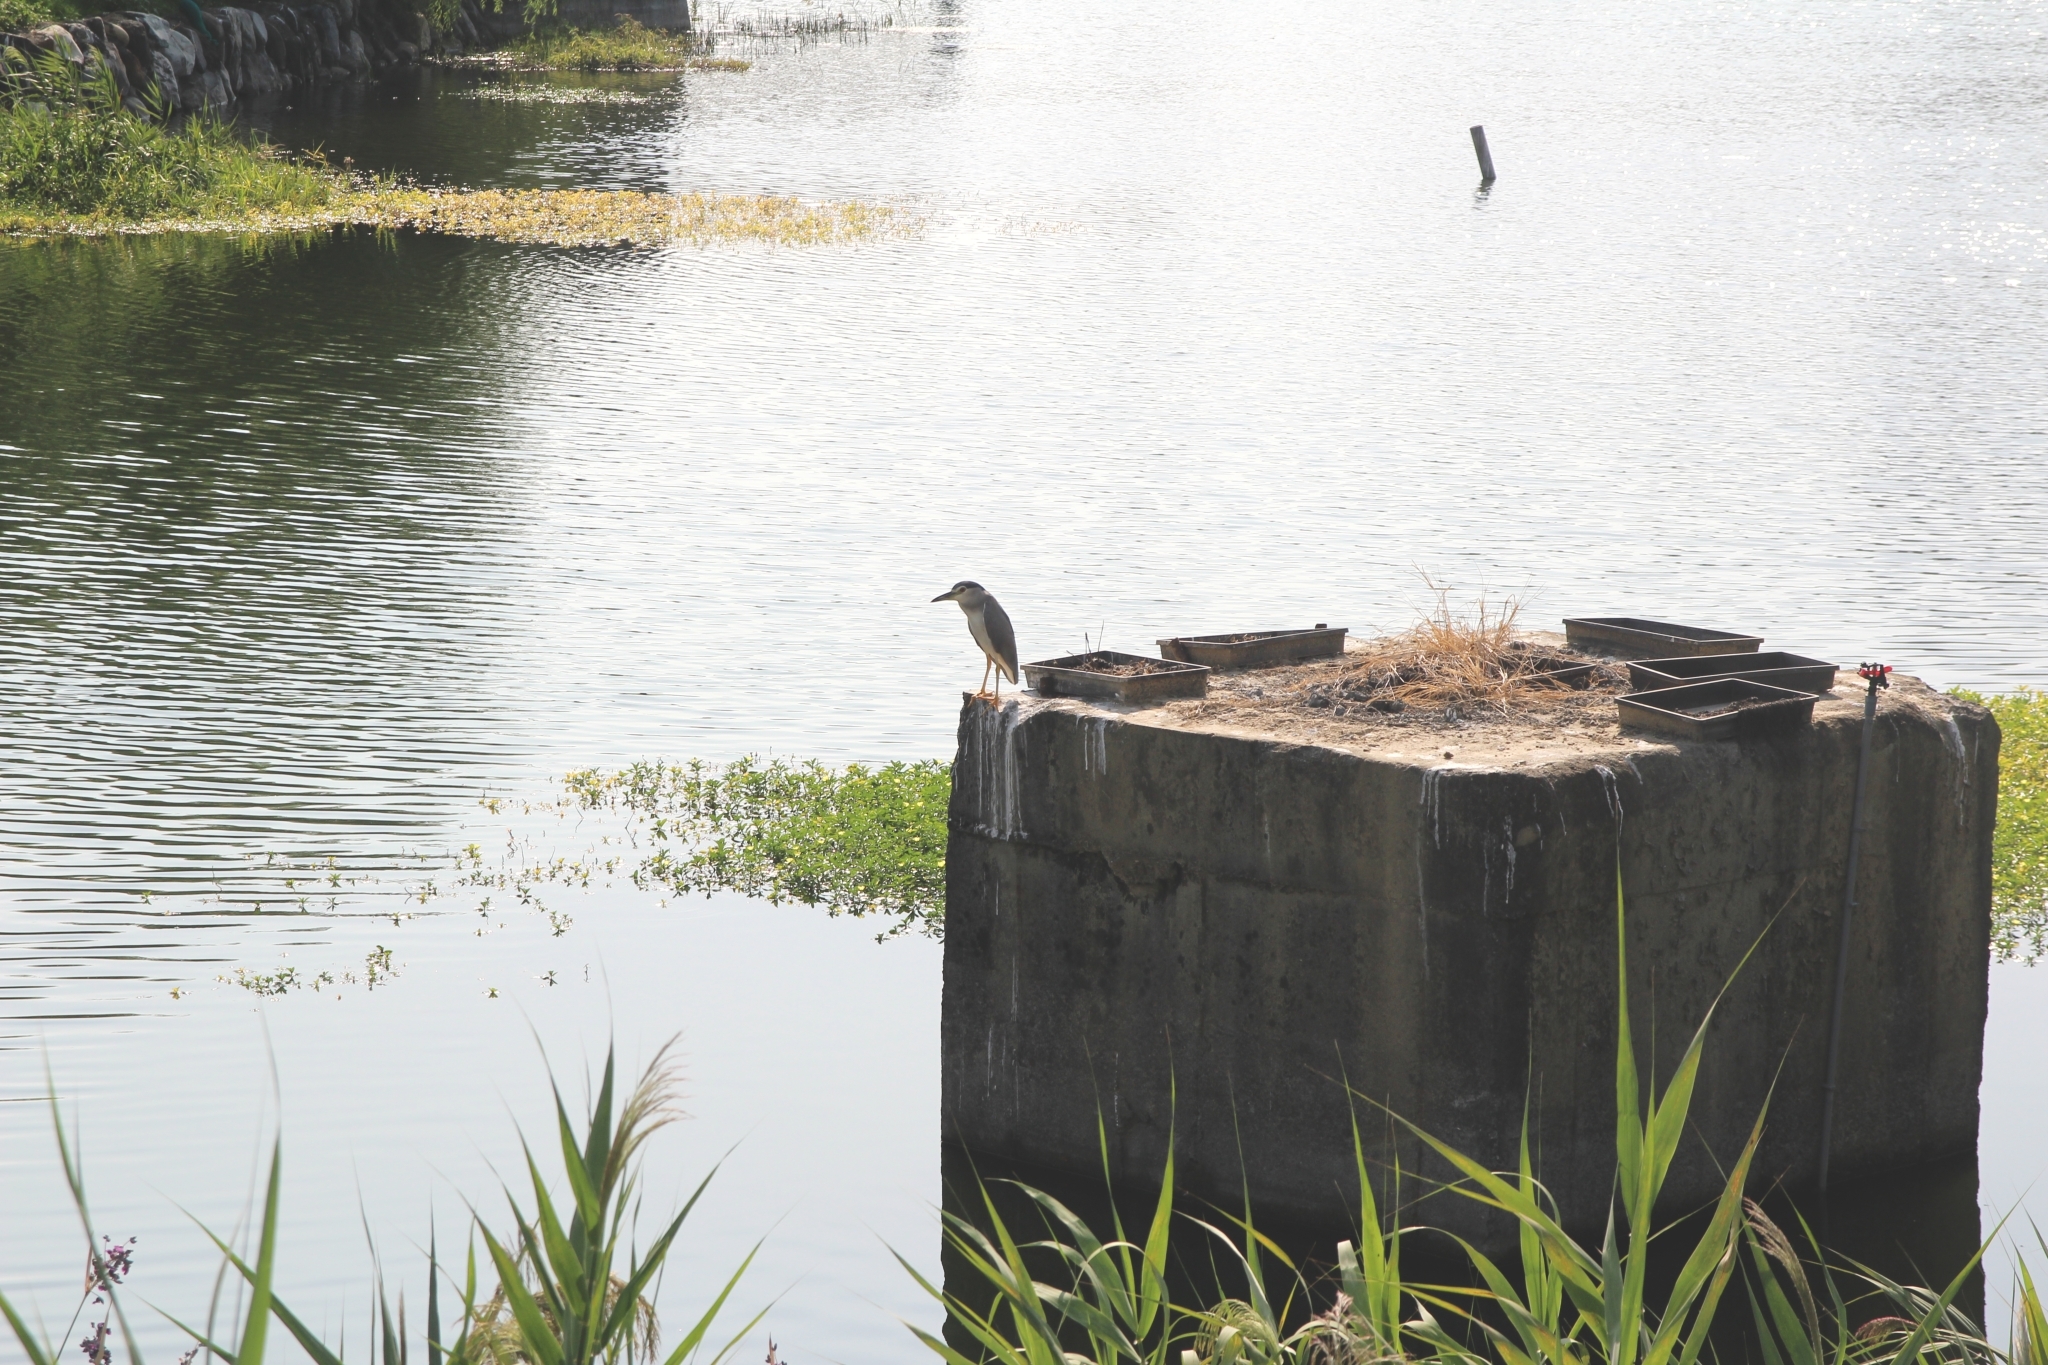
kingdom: Animalia
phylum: Chordata
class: Aves
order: Pelecaniformes
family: Ardeidae
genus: Nycticorax
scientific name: Nycticorax nycticorax
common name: Black-crowned night heron
